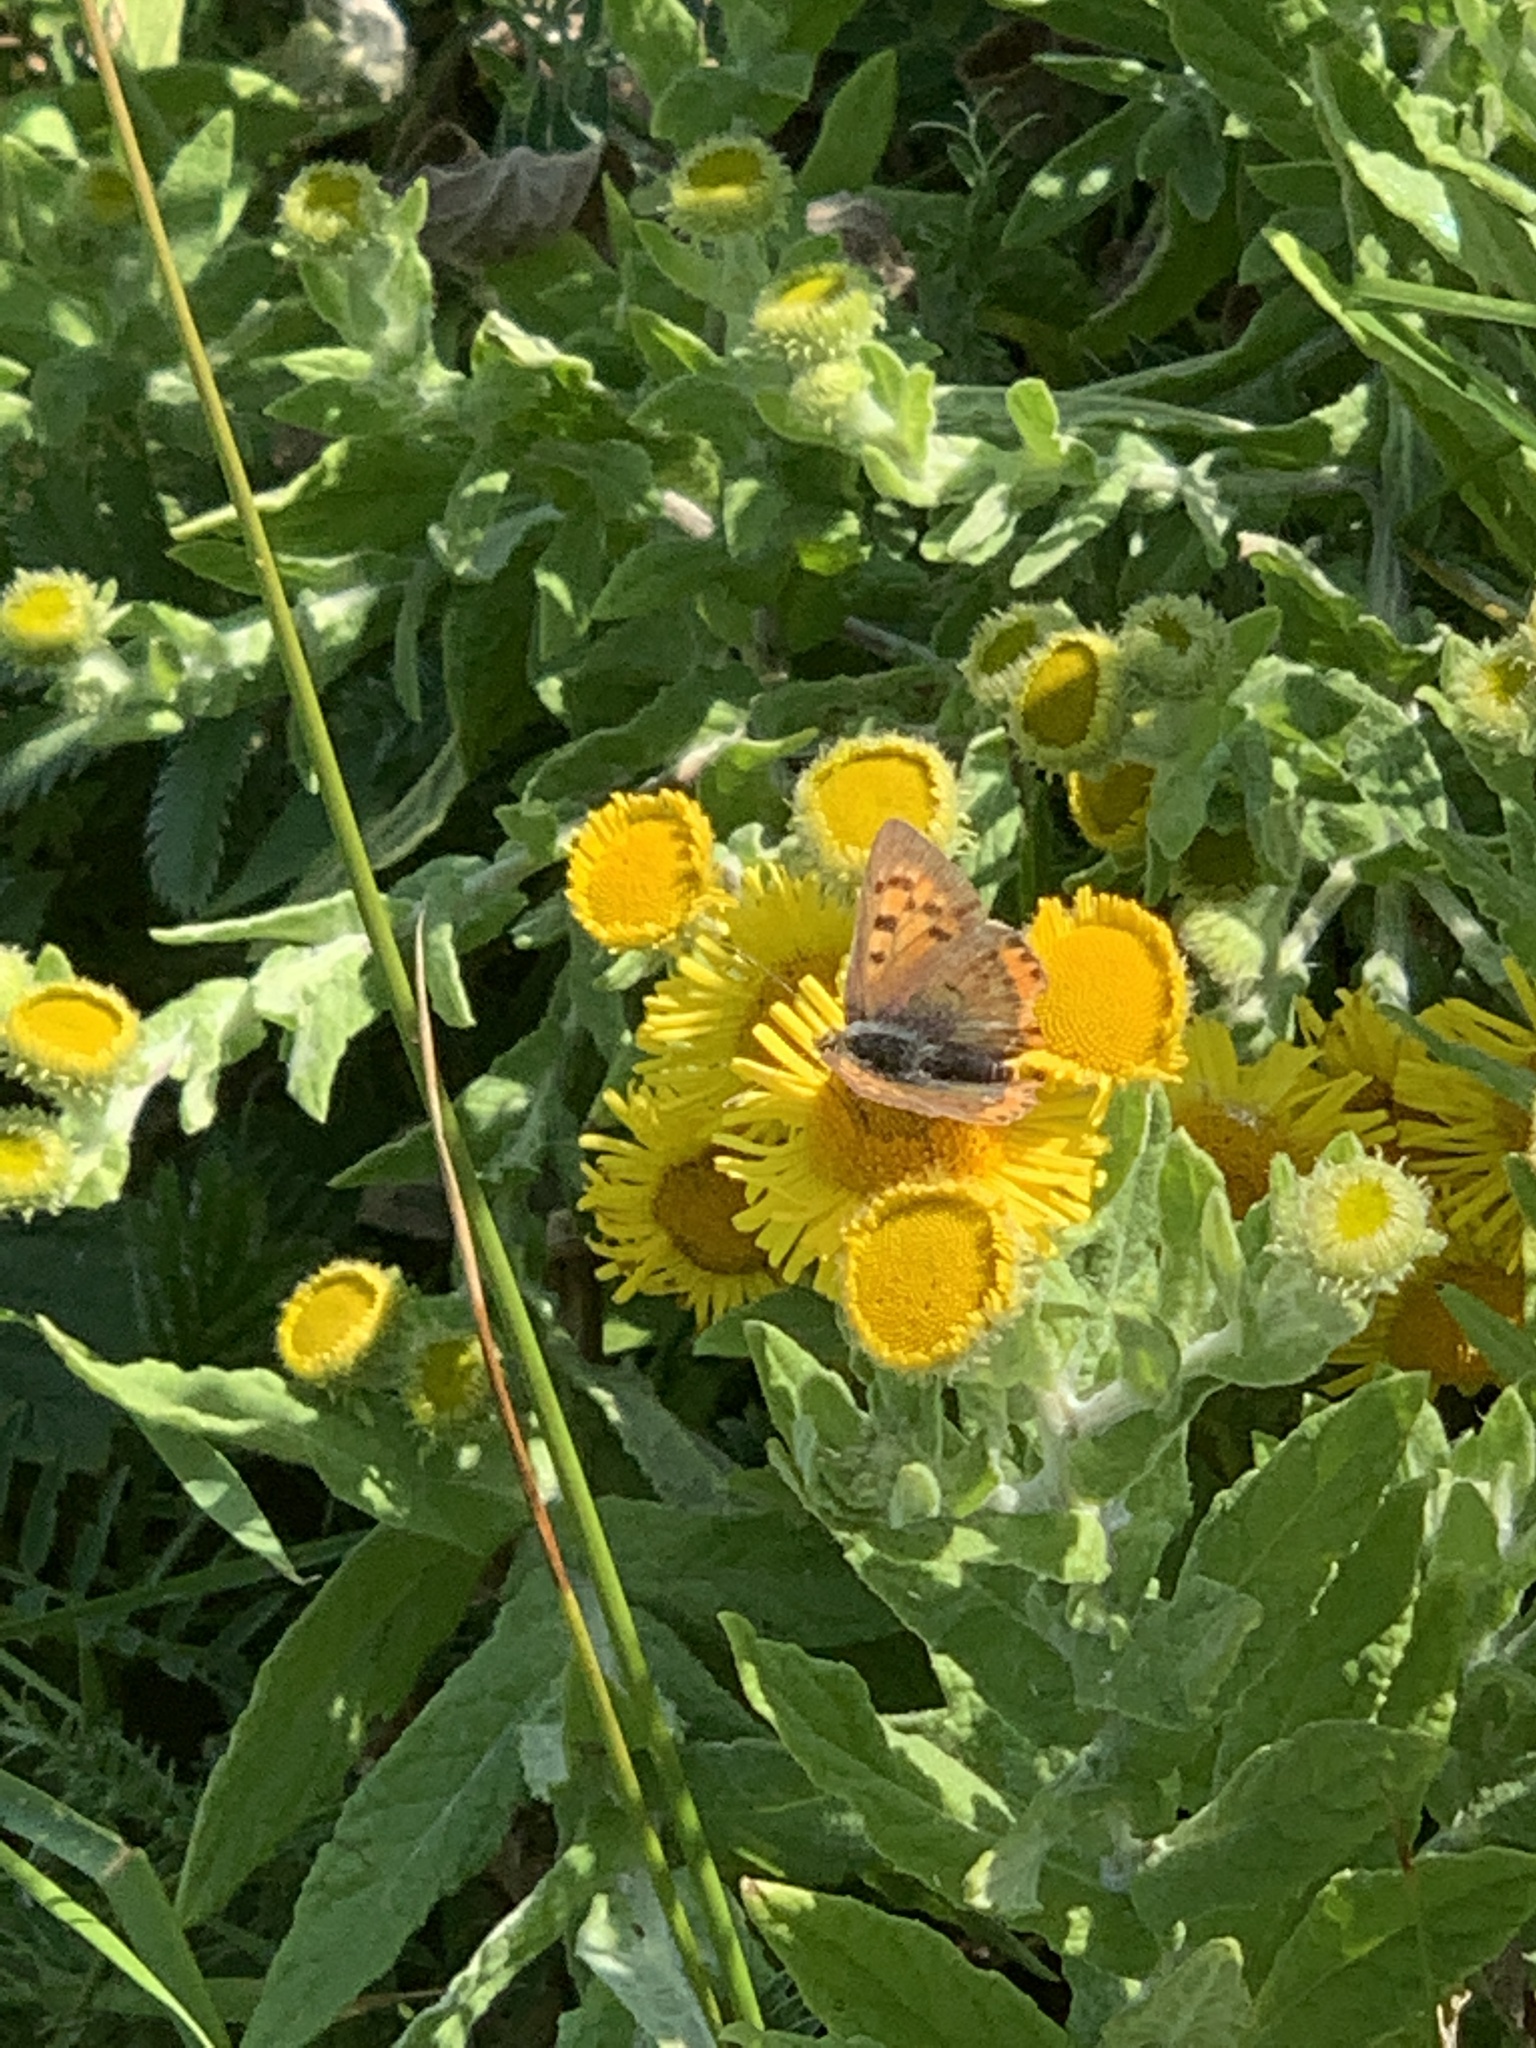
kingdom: Animalia
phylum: Arthropoda
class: Insecta
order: Lepidoptera
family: Lycaenidae
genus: Lycaena
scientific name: Lycaena phlaeas
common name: Small copper
